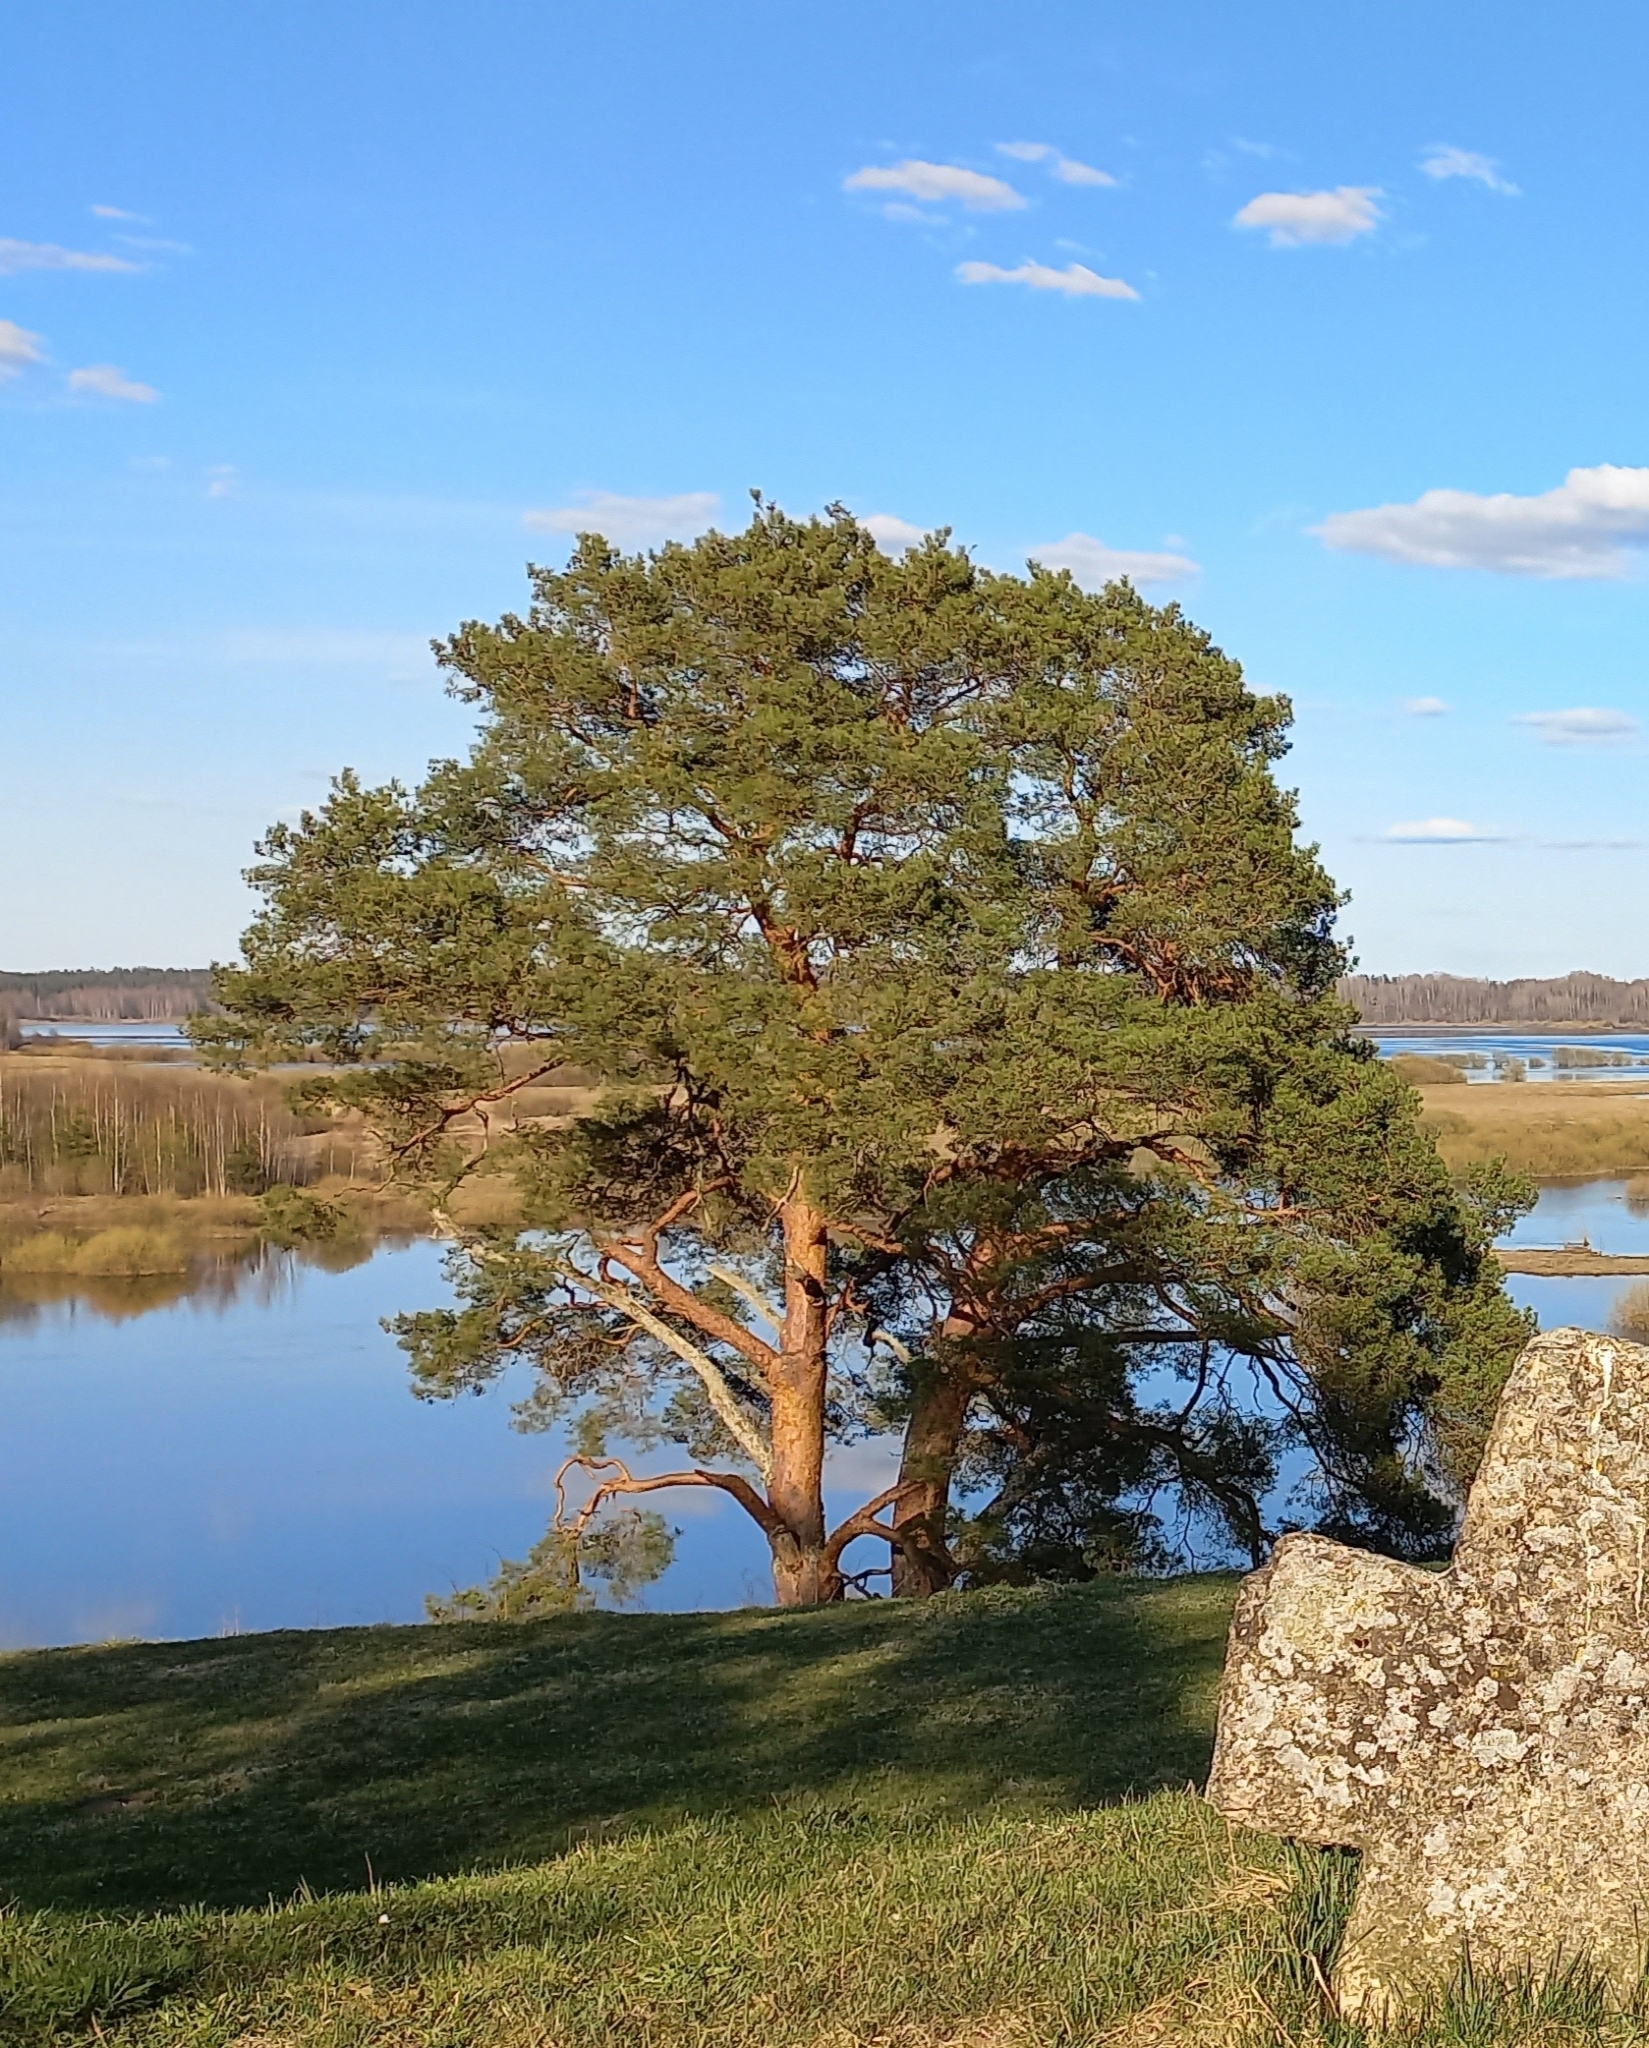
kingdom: Plantae
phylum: Tracheophyta
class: Pinopsida
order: Pinales
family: Pinaceae
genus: Pinus
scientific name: Pinus sylvestris
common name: Scots pine
